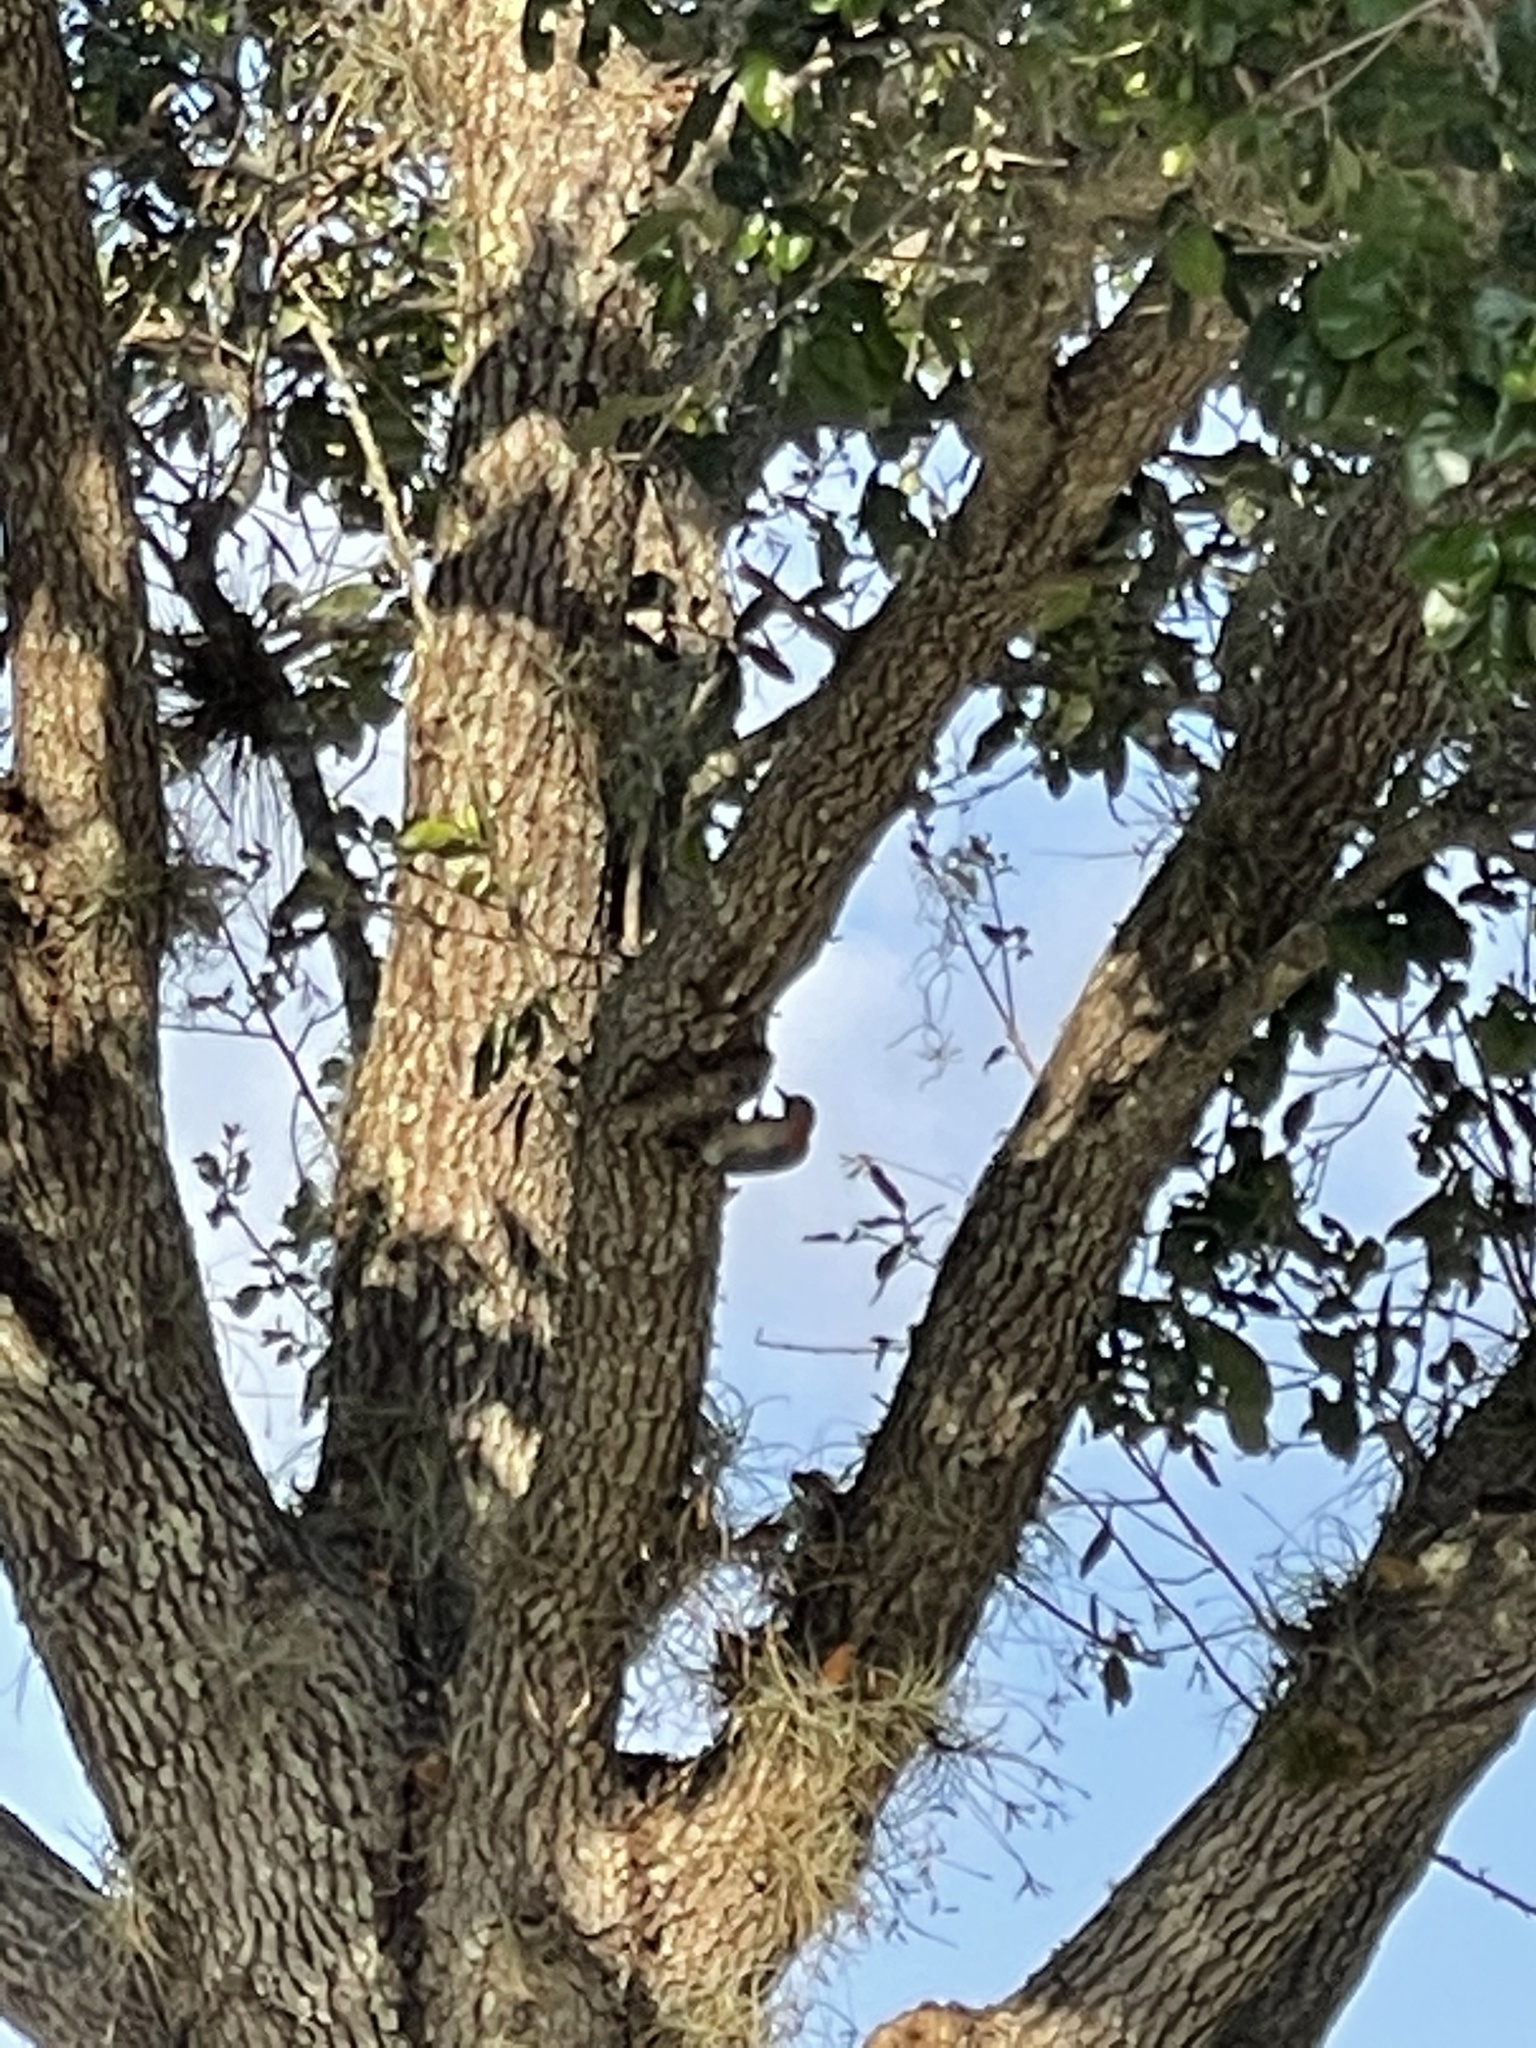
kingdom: Animalia
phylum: Chordata
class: Aves
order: Piciformes
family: Picidae
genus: Melanerpes
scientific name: Melanerpes carolinus
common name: Red-bellied woodpecker
